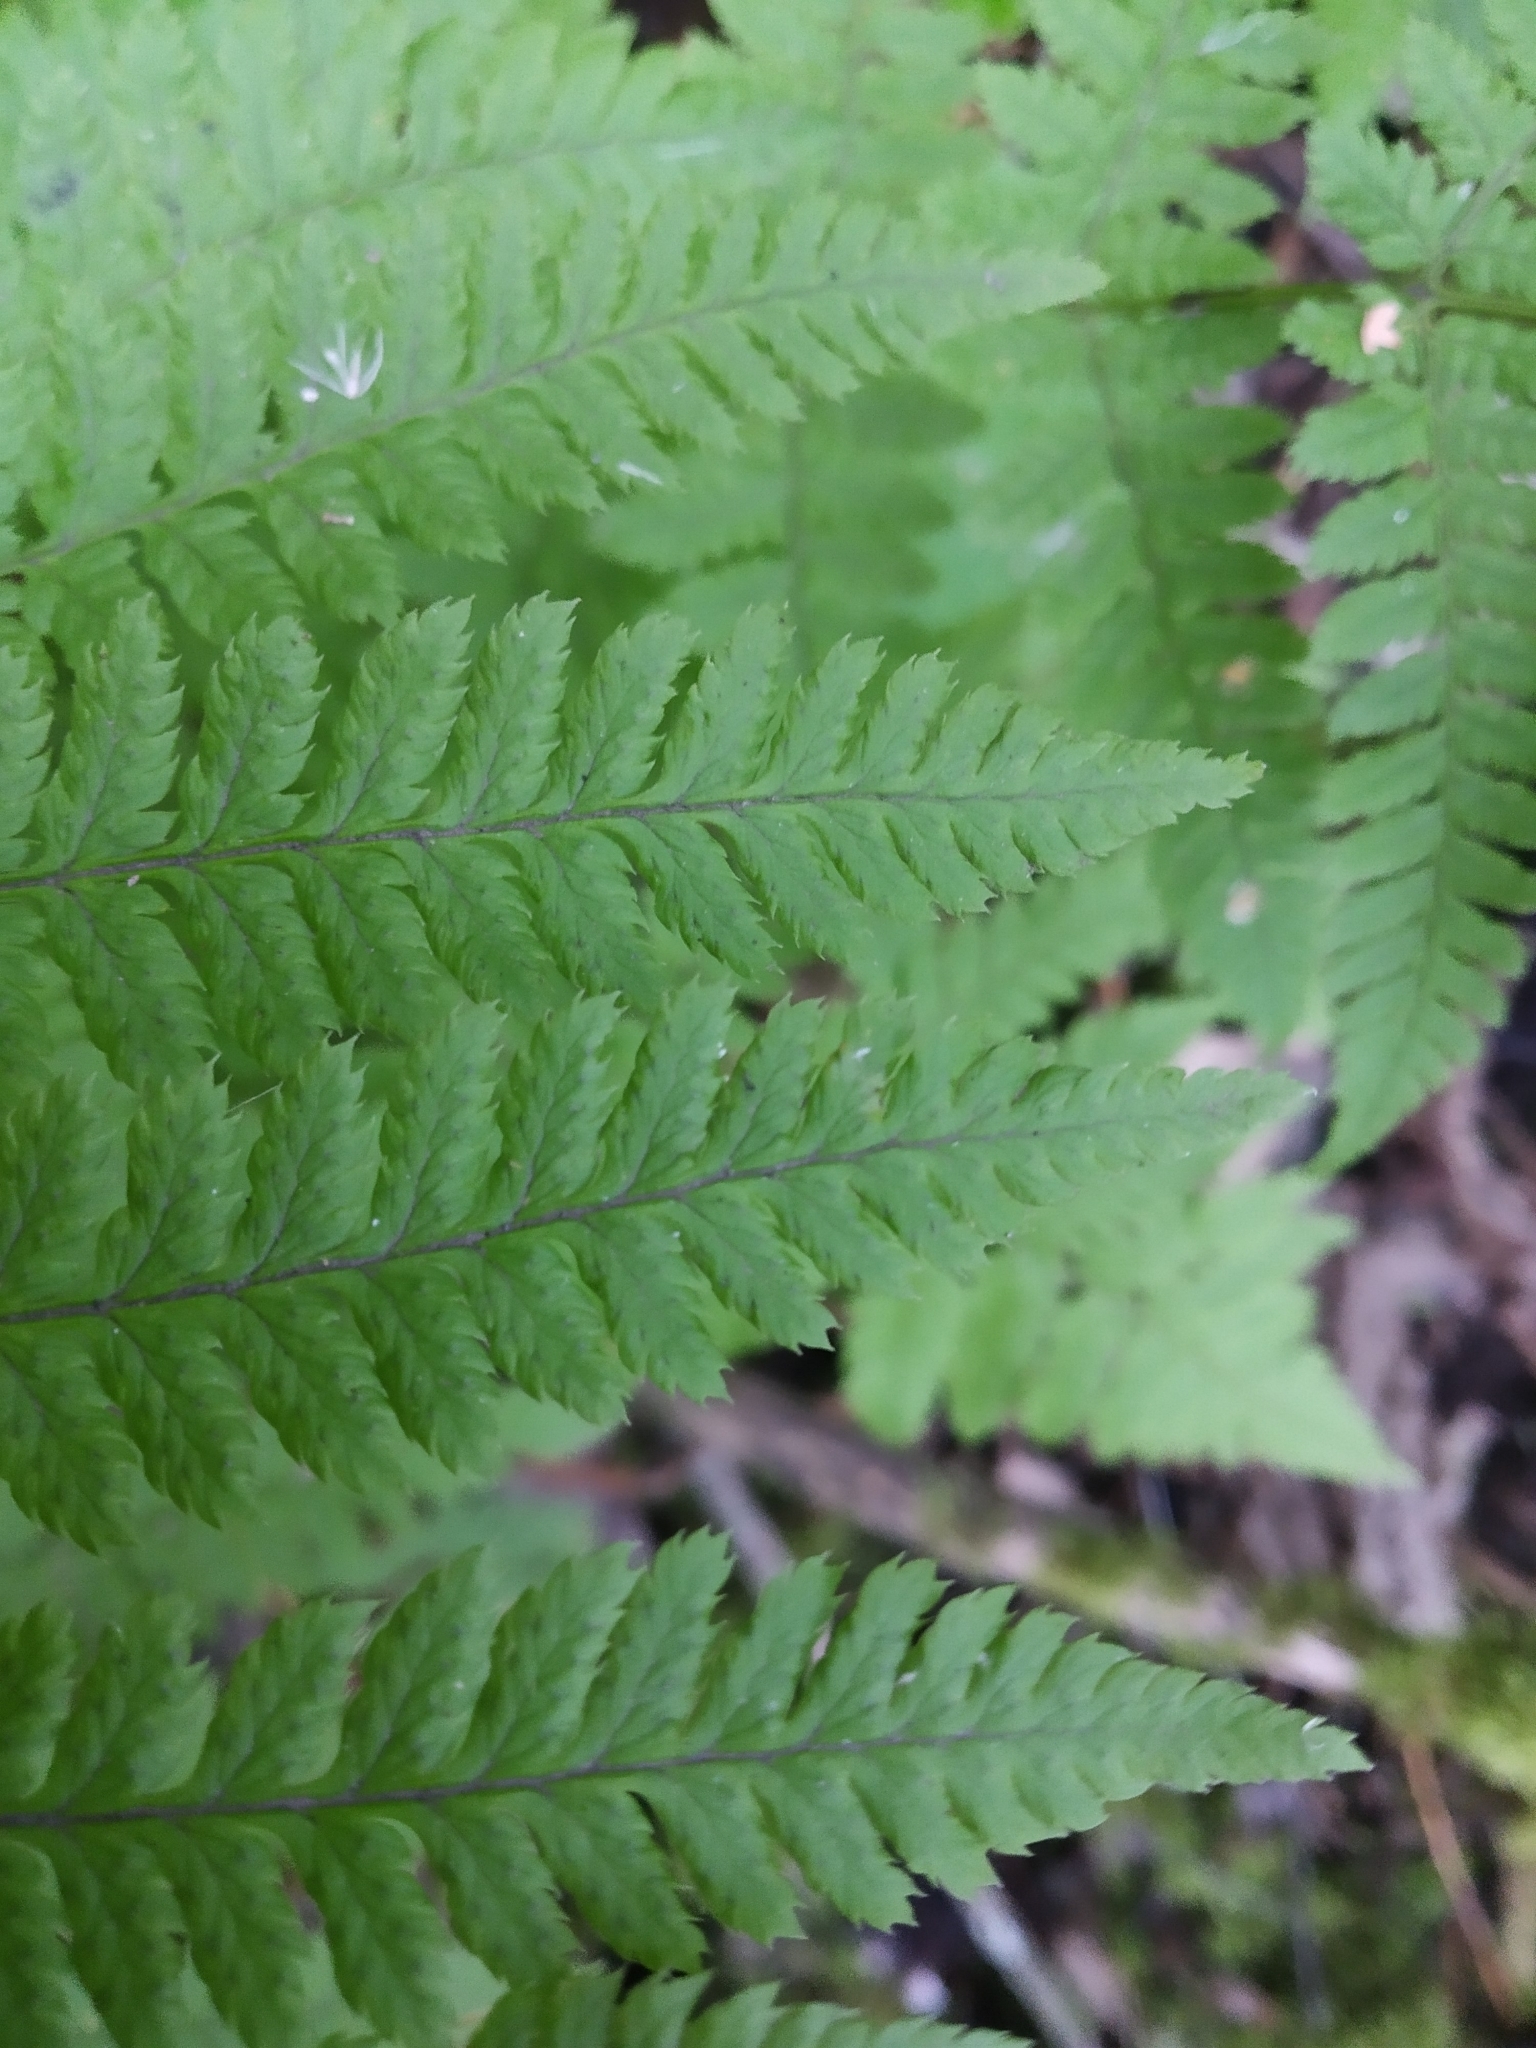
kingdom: Plantae
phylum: Tracheophyta
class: Polypodiopsida
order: Polypodiales
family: Dryopteridaceae
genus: Dryopteris
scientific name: Dryopteris carthusiana
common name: Narrow buckler-fern
